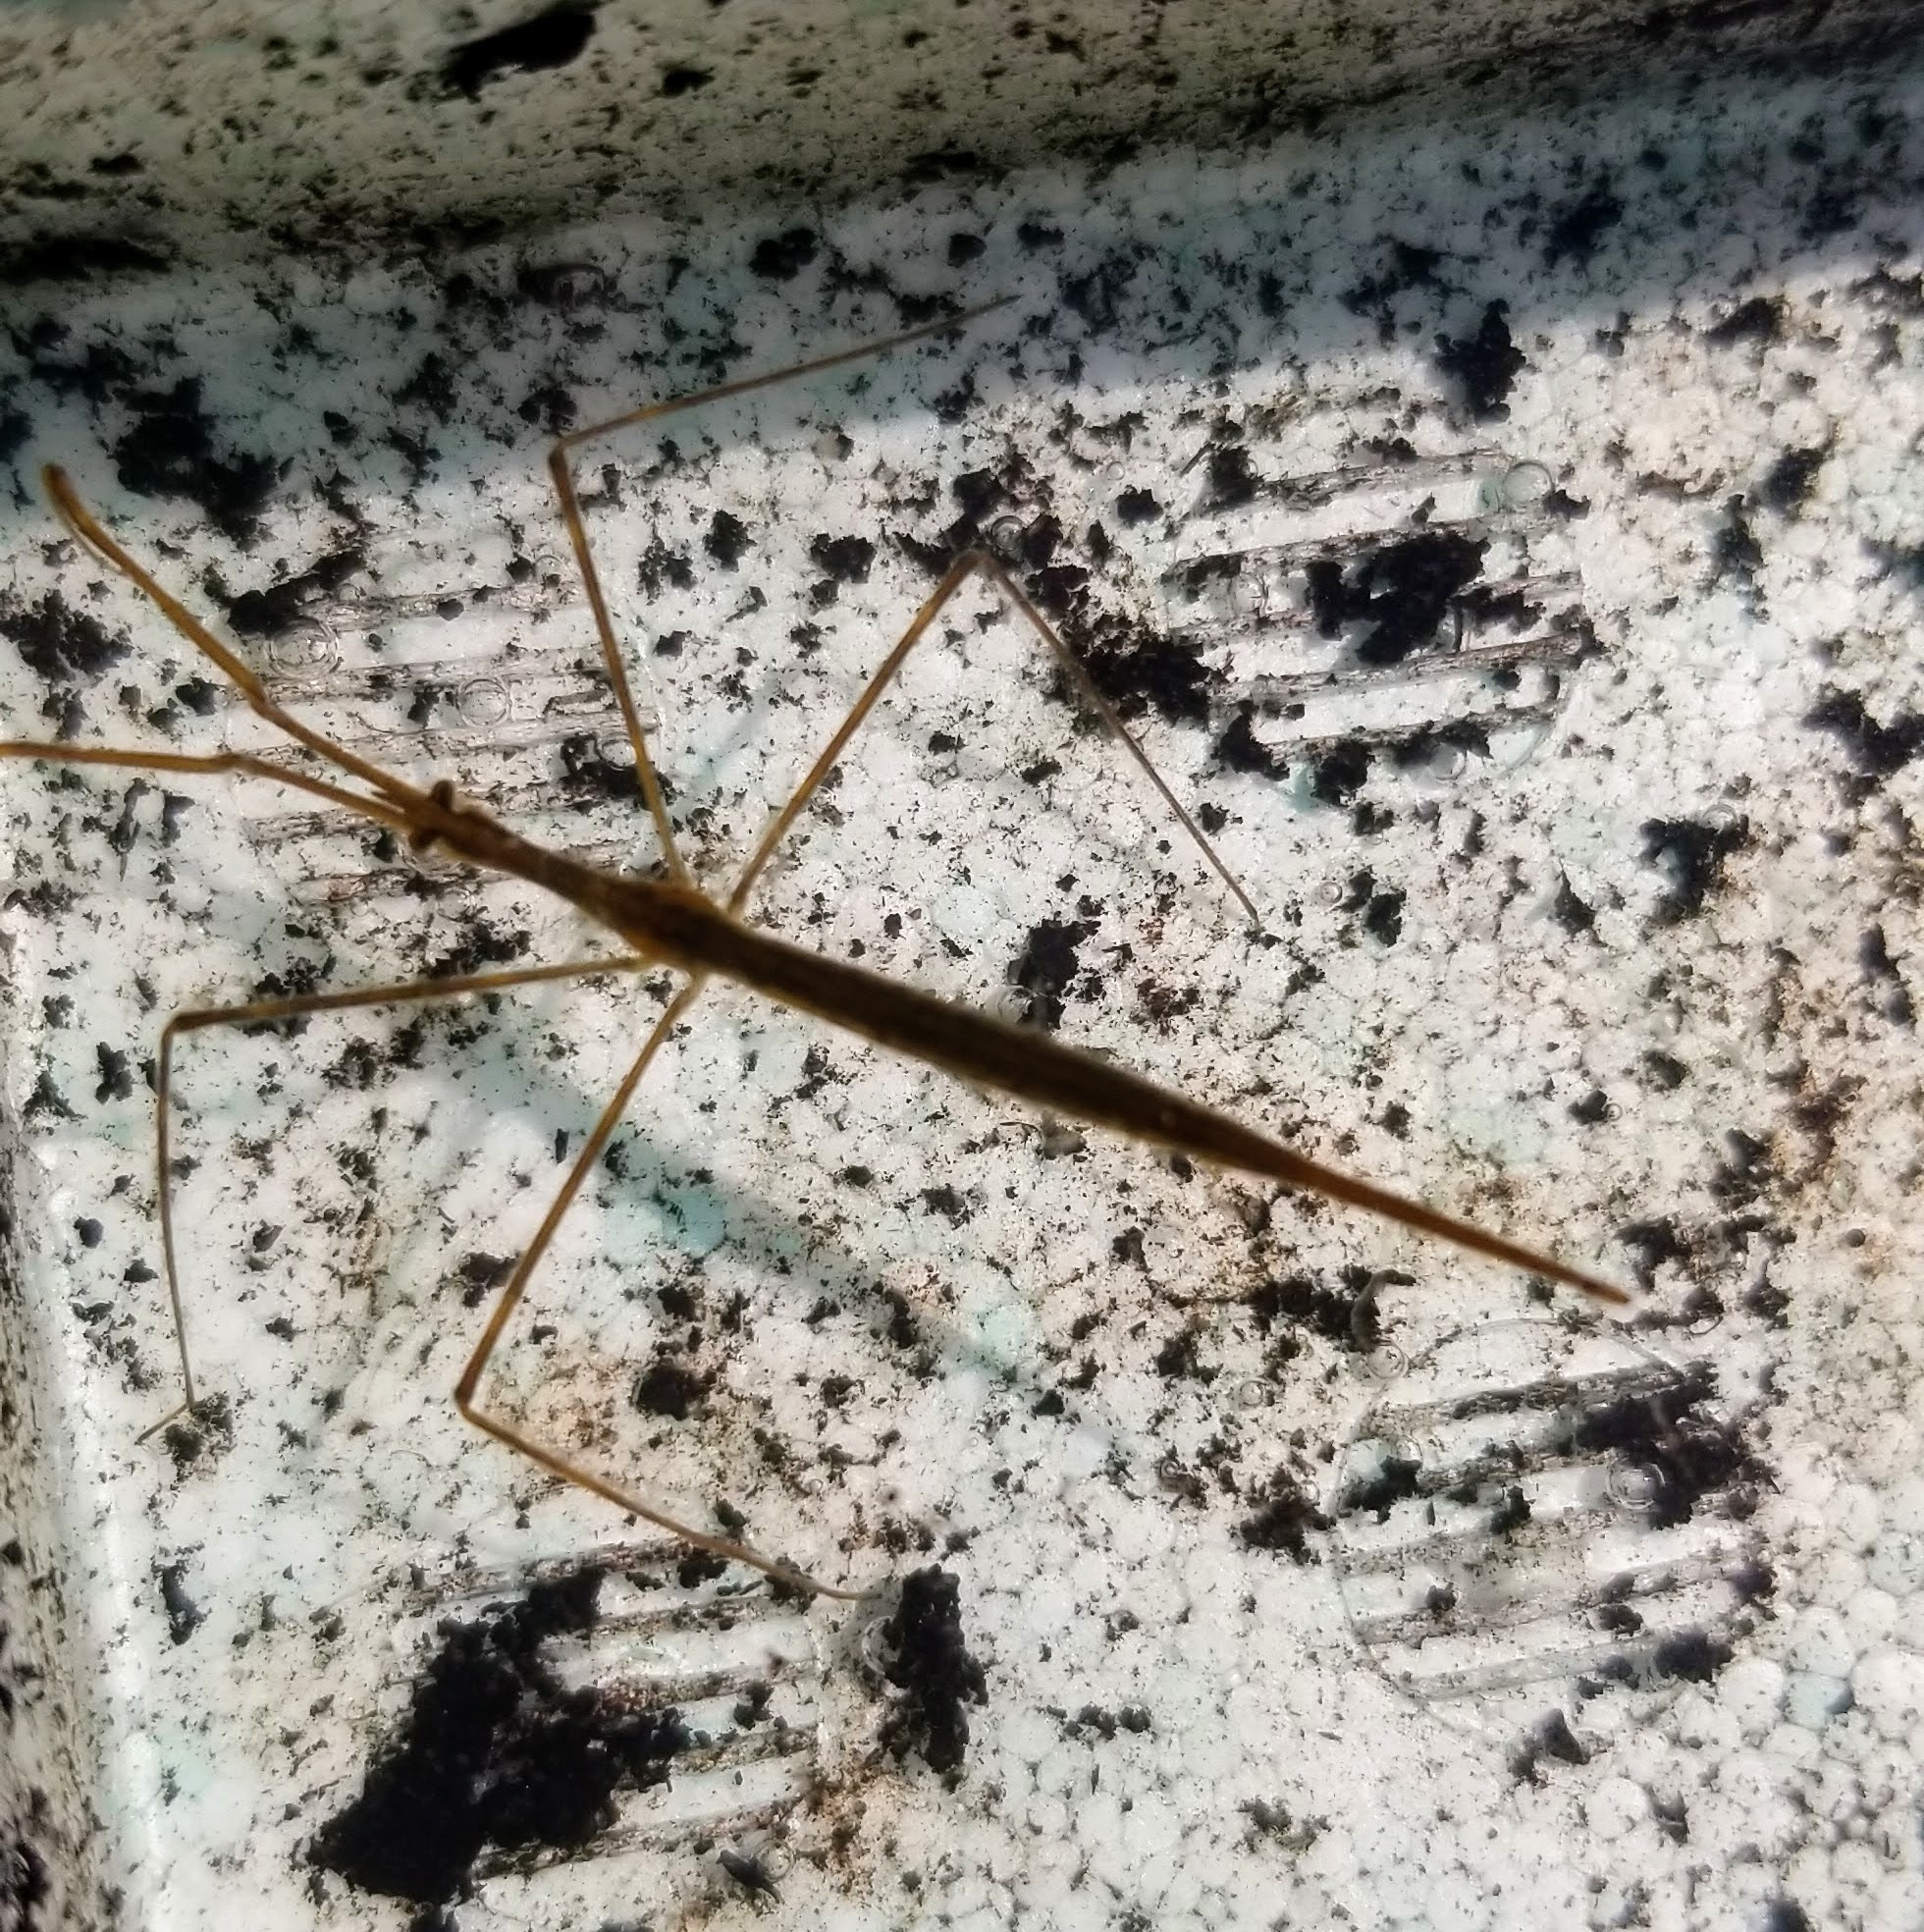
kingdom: Animalia
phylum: Arthropoda
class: Insecta
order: Hemiptera
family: Nepidae
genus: Ranatra
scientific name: Ranatra fusca
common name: Brown waterscorpion
